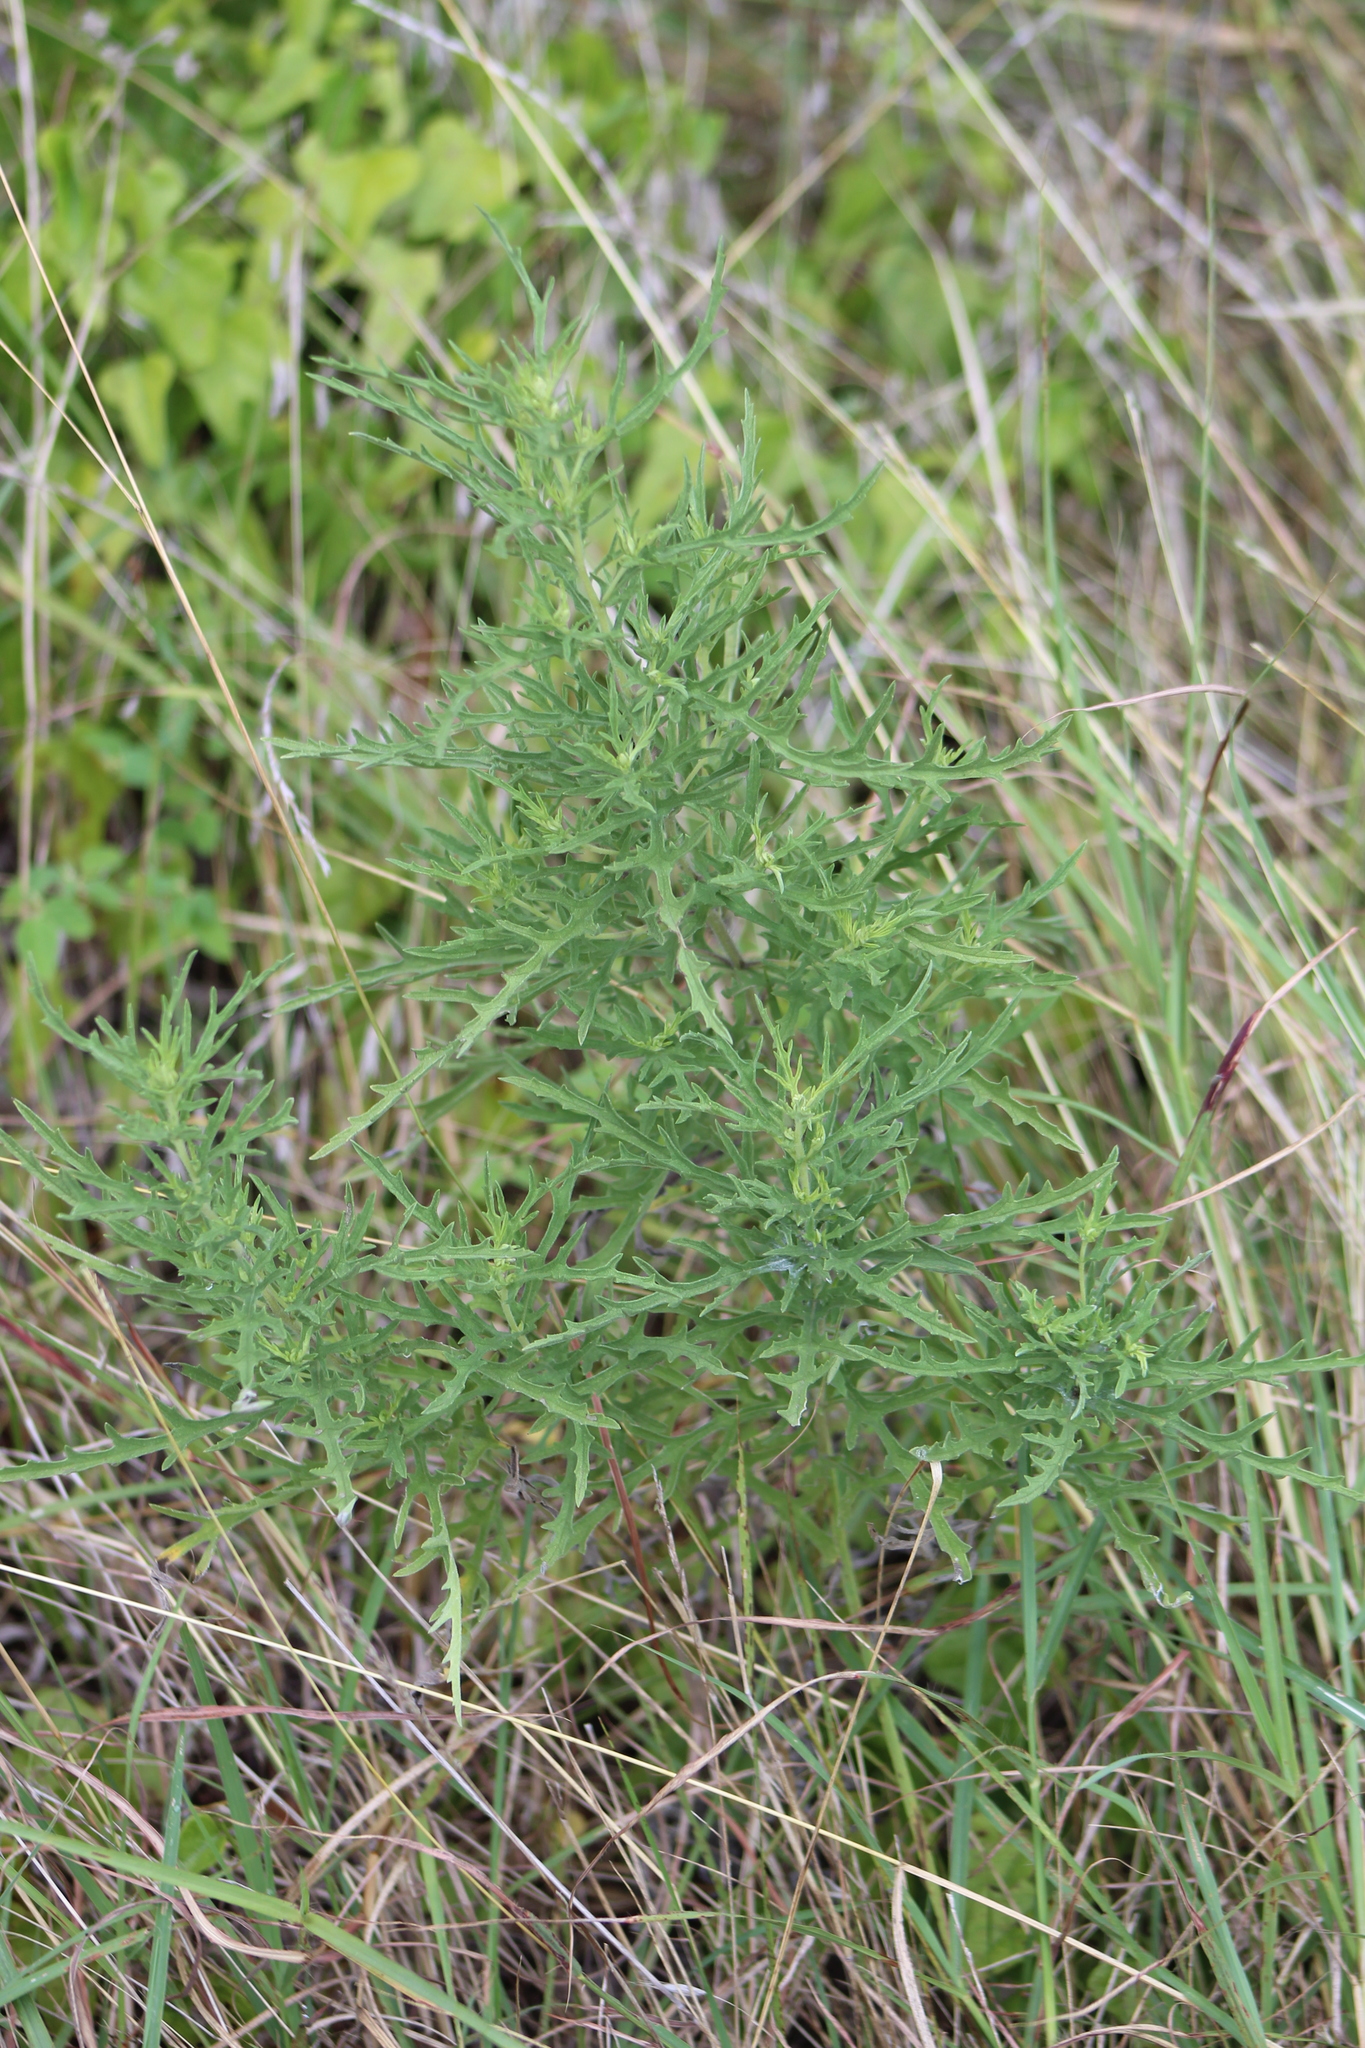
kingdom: Plantae
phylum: Tracheophyta
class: Magnoliopsida
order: Asterales
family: Asteraceae
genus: Ambrosia
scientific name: Ambrosia psilostachya
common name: Perennial ragweed
